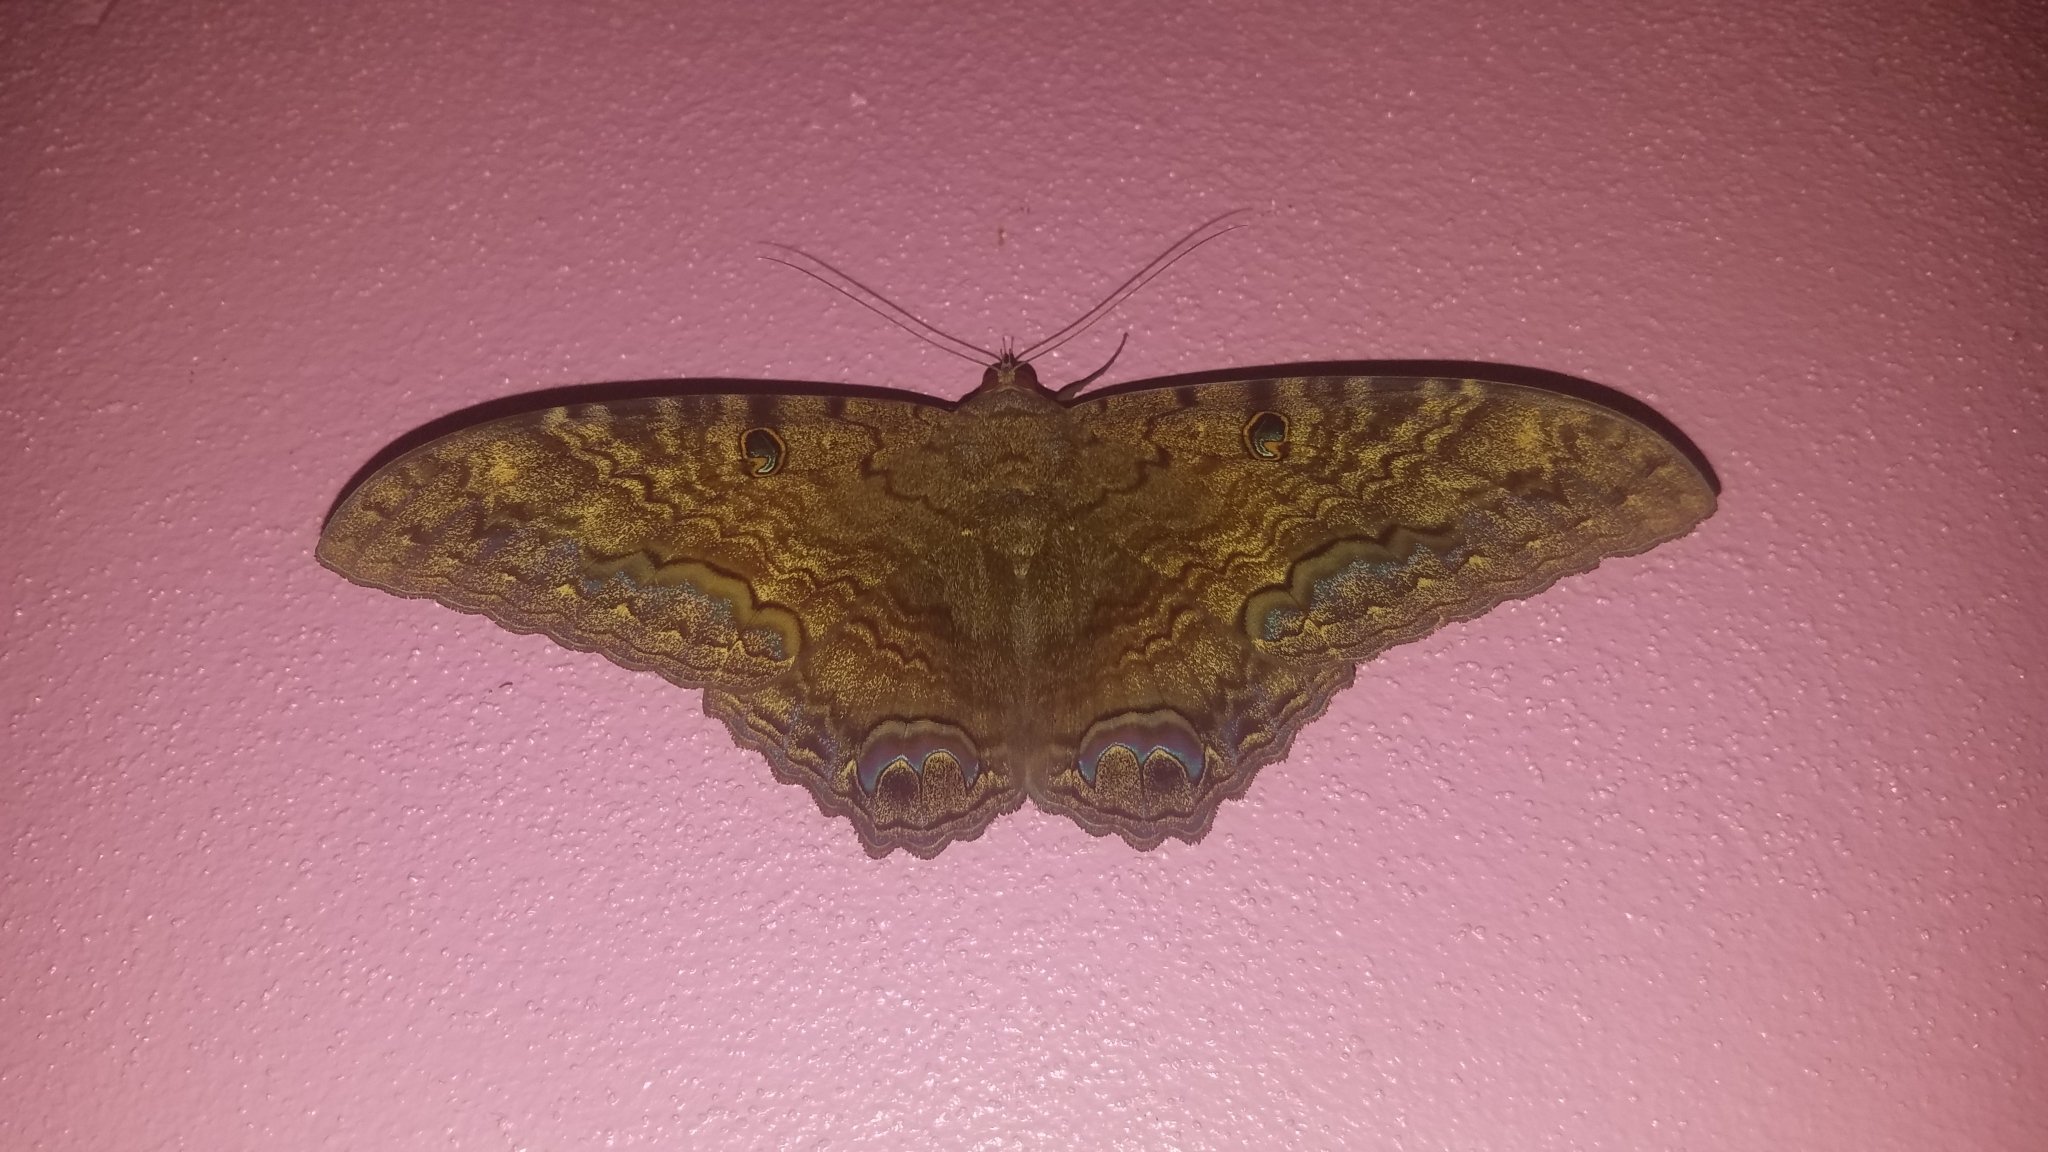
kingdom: Animalia
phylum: Arthropoda
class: Insecta
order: Lepidoptera
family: Erebidae
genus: Ascalapha
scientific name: Ascalapha odorata
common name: Black witch
